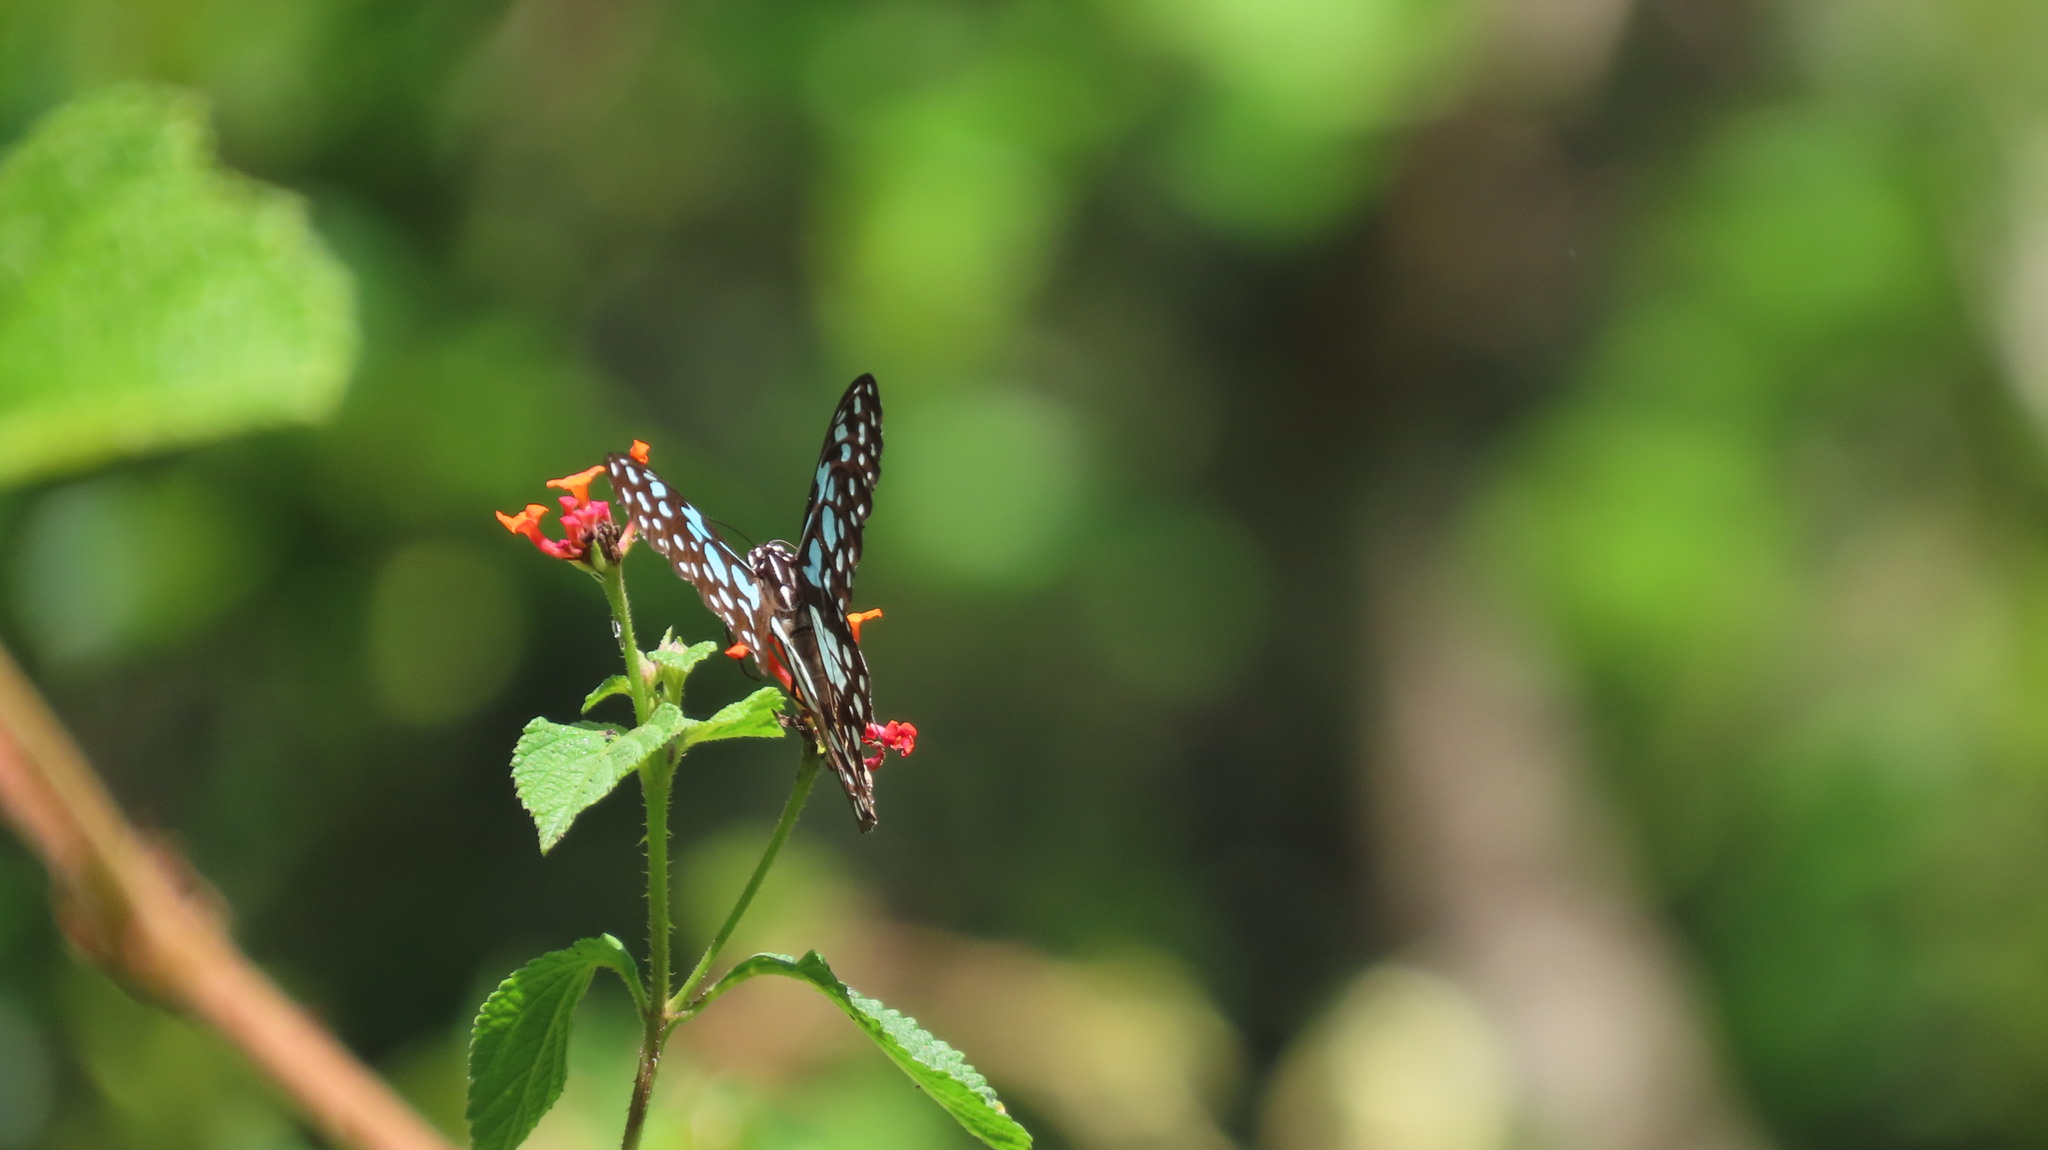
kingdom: Animalia
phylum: Arthropoda
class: Insecta
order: Lepidoptera
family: Nymphalidae
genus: Tirumala
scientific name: Tirumala limniace
